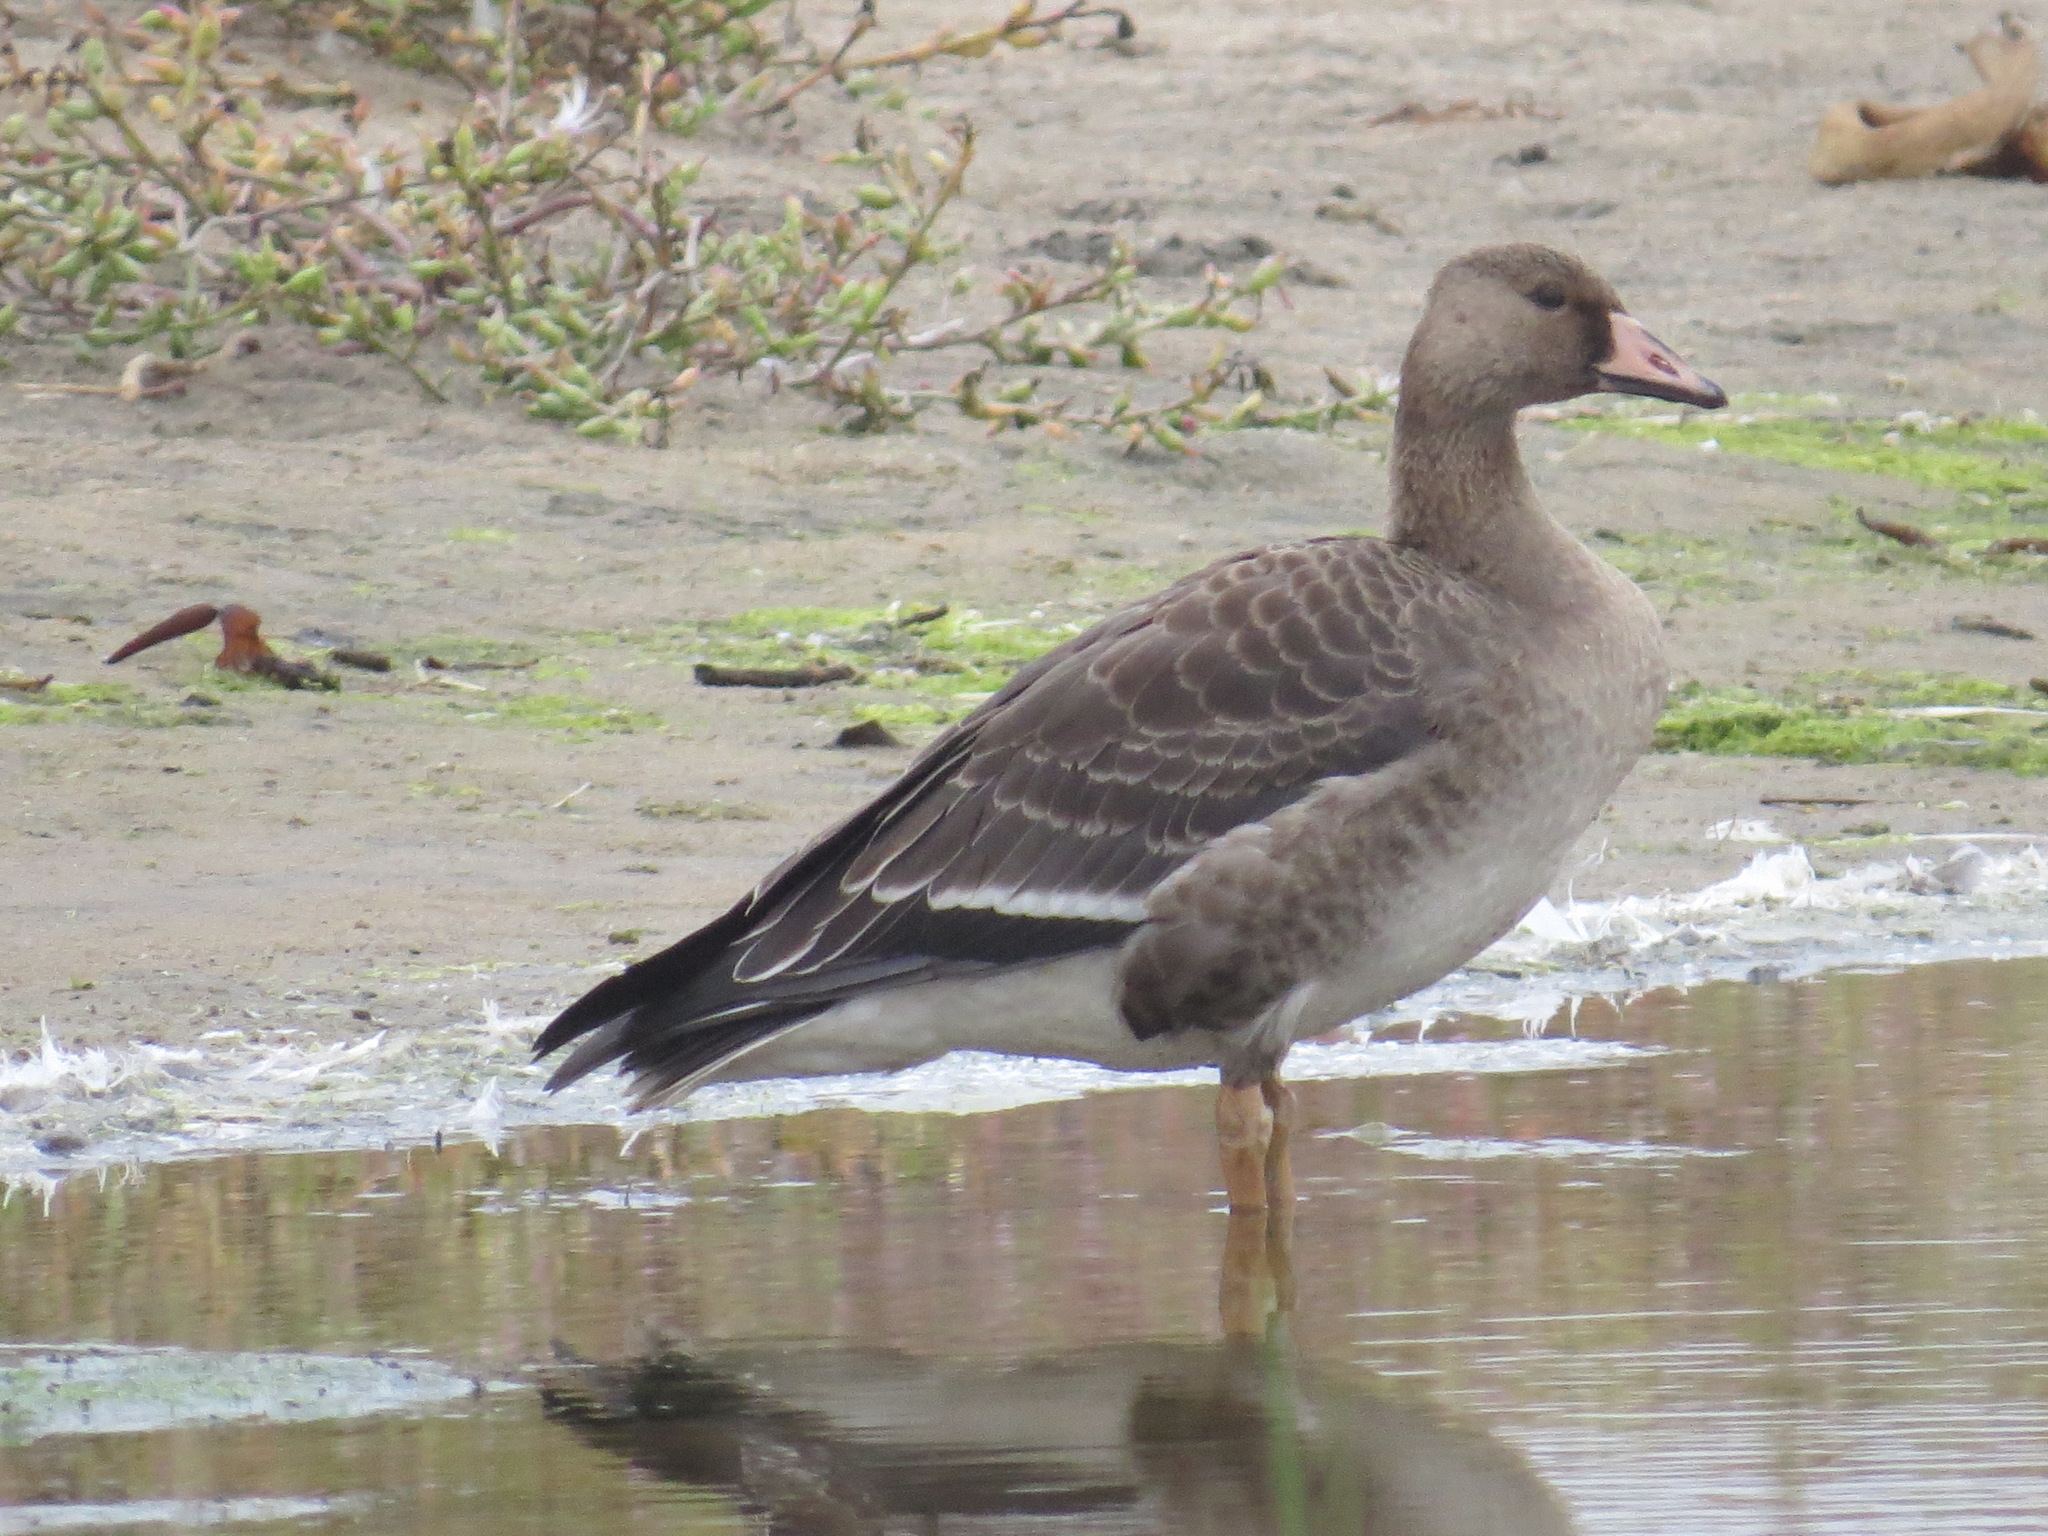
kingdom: Animalia
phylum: Chordata
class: Aves
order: Anseriformes
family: Anatidae
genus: Anser
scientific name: Anser albifrons
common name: Greater white-fronted goose
